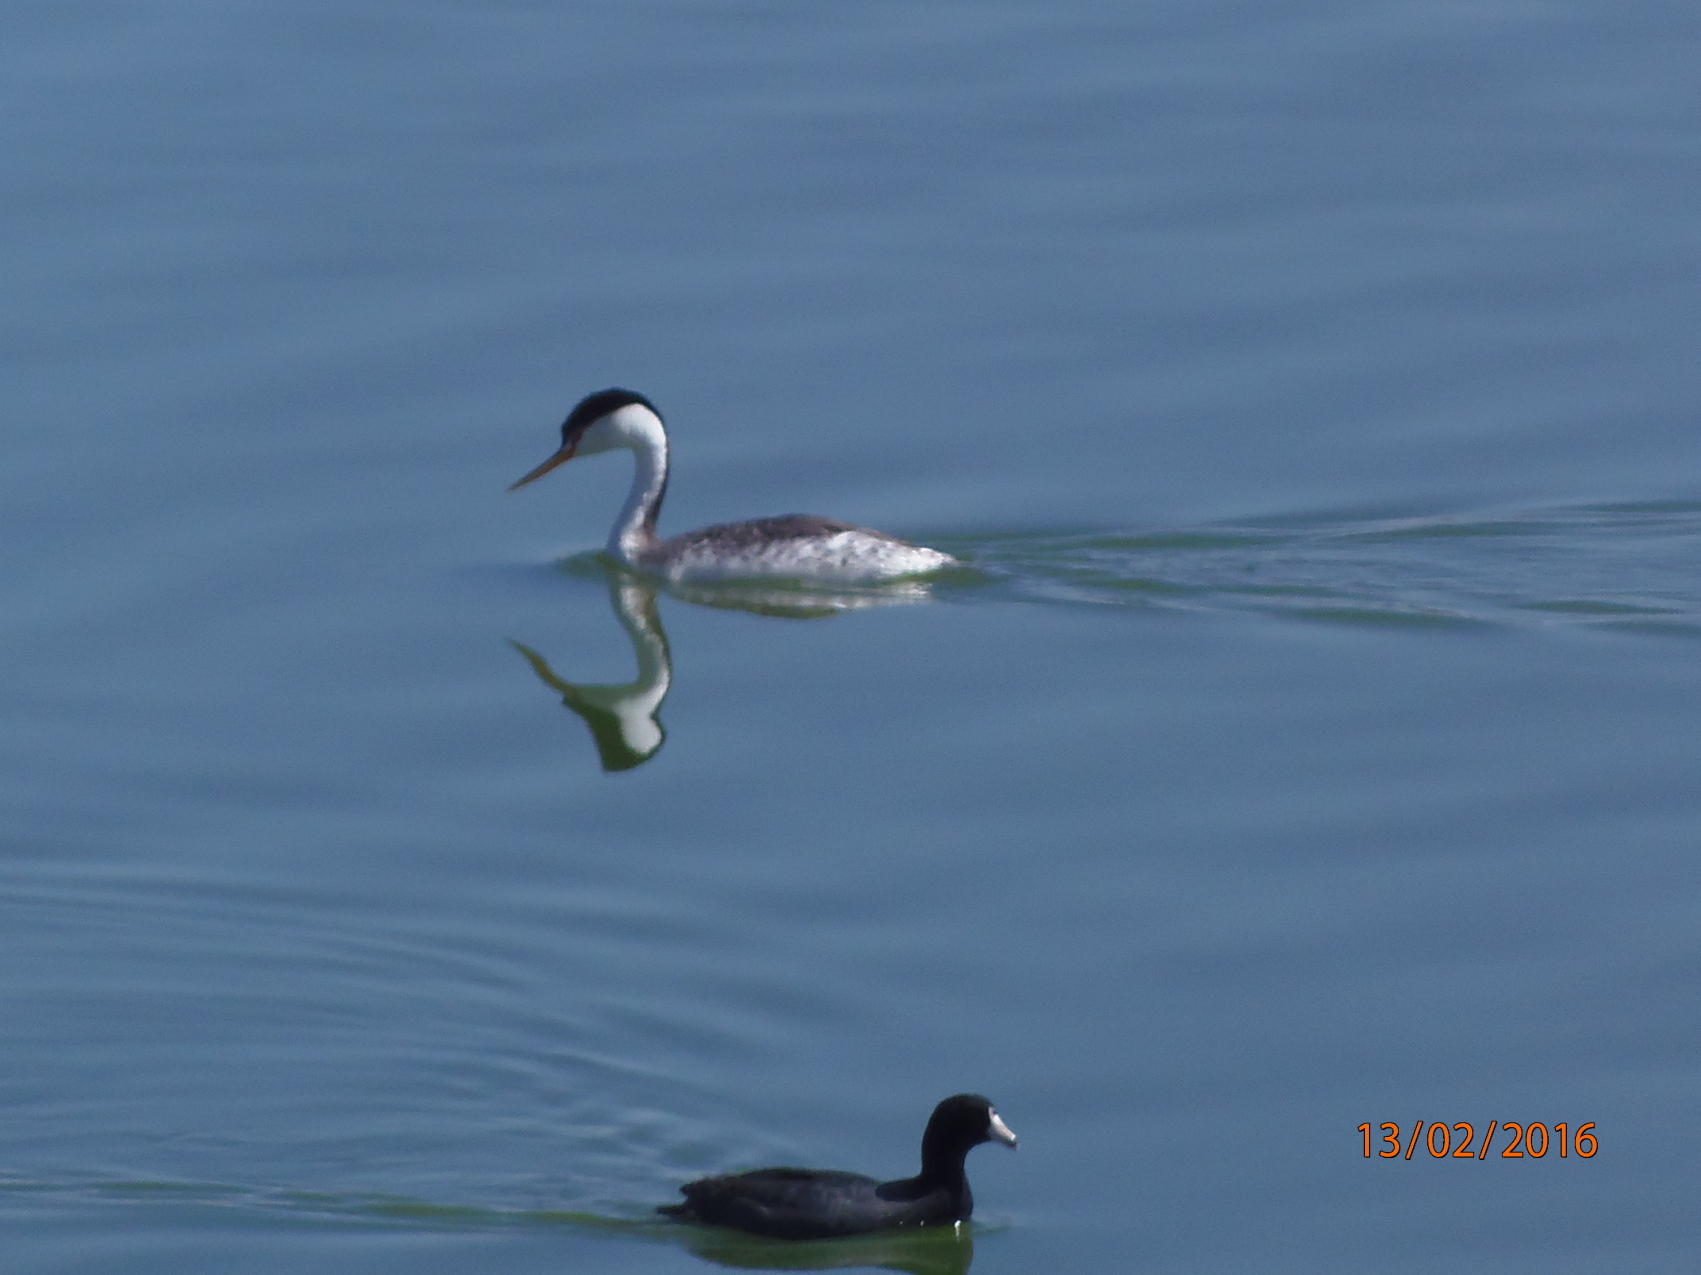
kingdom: Animalia
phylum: Chordata
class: Aves
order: Podicipediformes
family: Podicipedidae
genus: Aechmophorus
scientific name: Aechmophorus clarkii
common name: Clark's grebe
